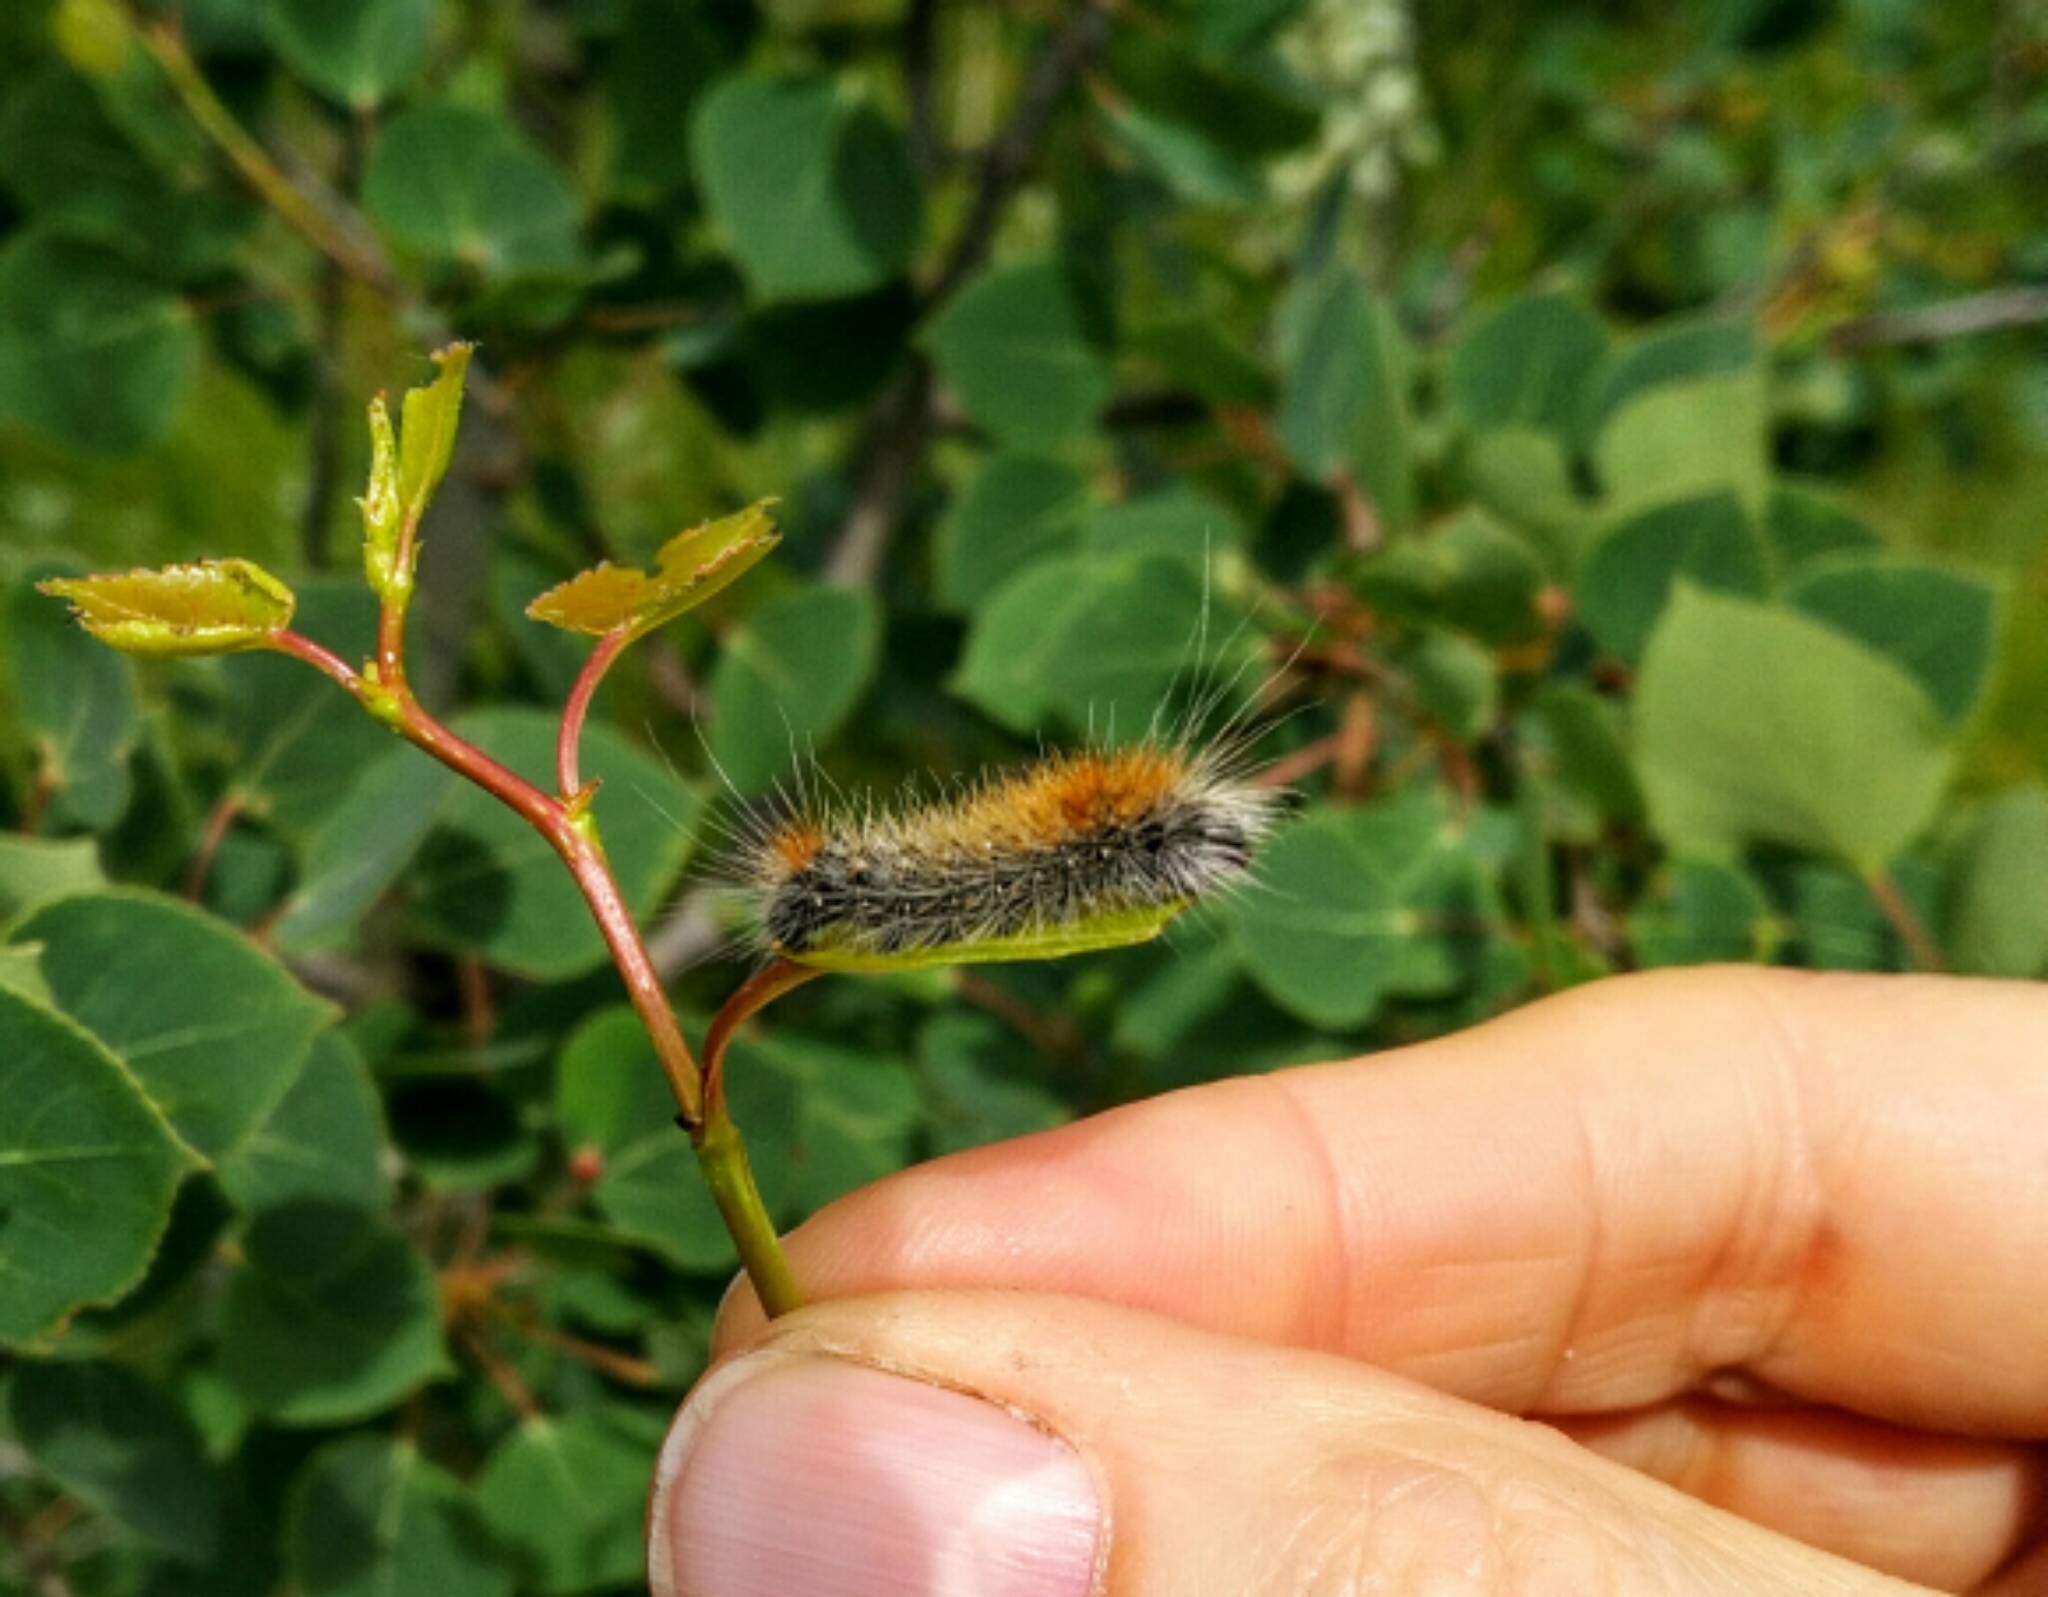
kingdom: Animalia
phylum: Arthropoda
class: Insecta
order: Lepidoptera
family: Noctuidae
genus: Acronicta
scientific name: Acronicta impressa
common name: Impressed dagger
